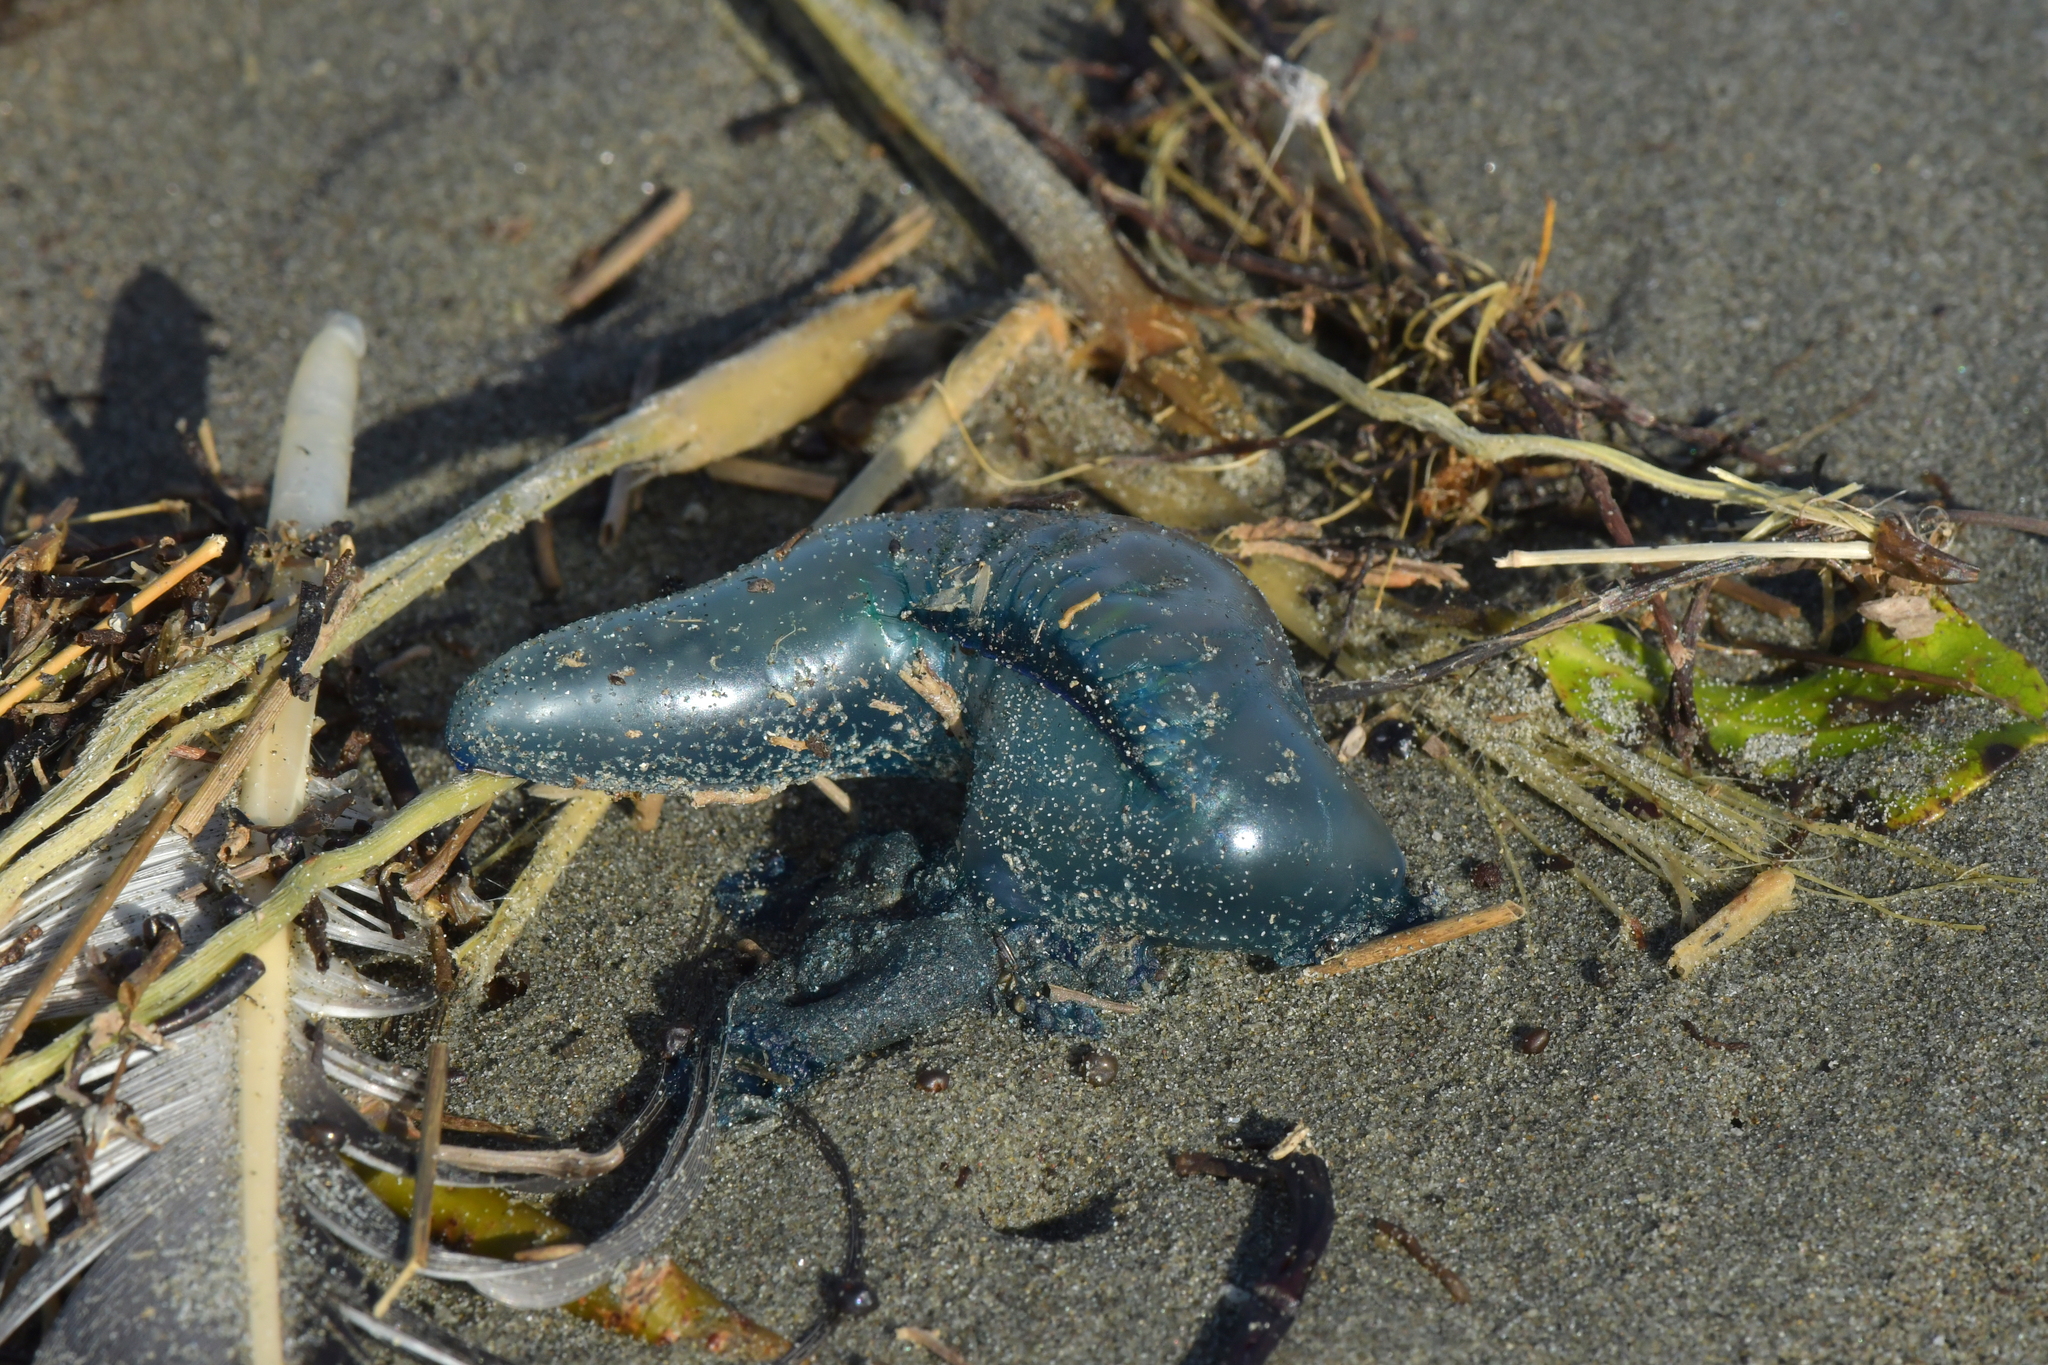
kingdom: Animalia
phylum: Cnidaria
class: Hydrozoa
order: Siphonophorae
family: Physaliidae
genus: Physalia
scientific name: Physalia physalis
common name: Portuguese man-of-war
